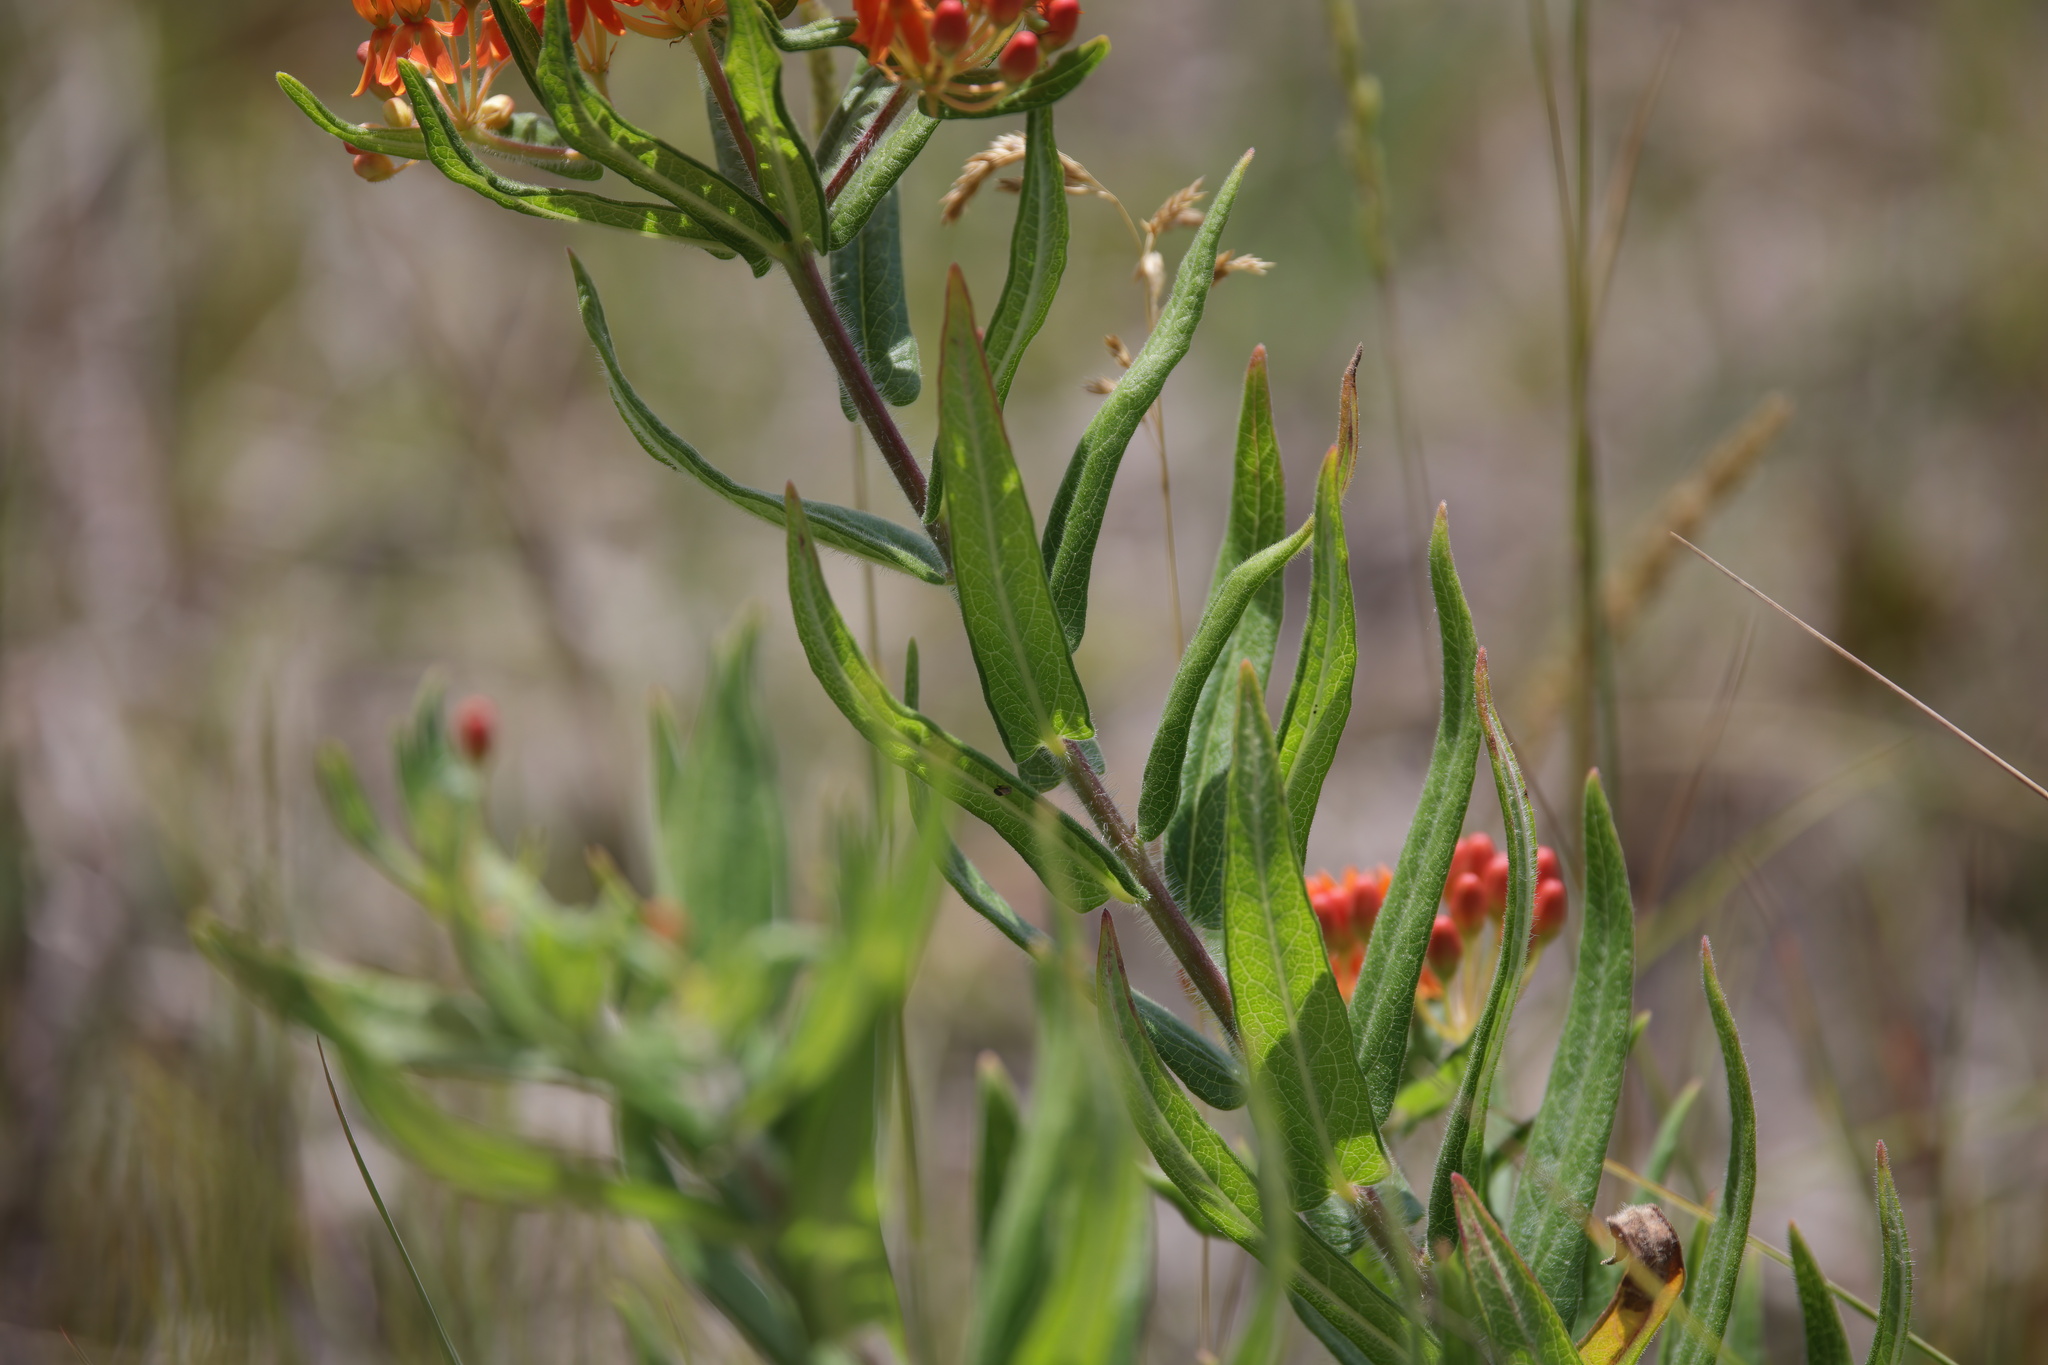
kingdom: Plantae
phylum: Tracheophyta
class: Magnoliopsida
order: Gentianales
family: Apocynaceae
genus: Asclepias
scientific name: Asclepias tuberosa
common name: Butterfly milkweed
